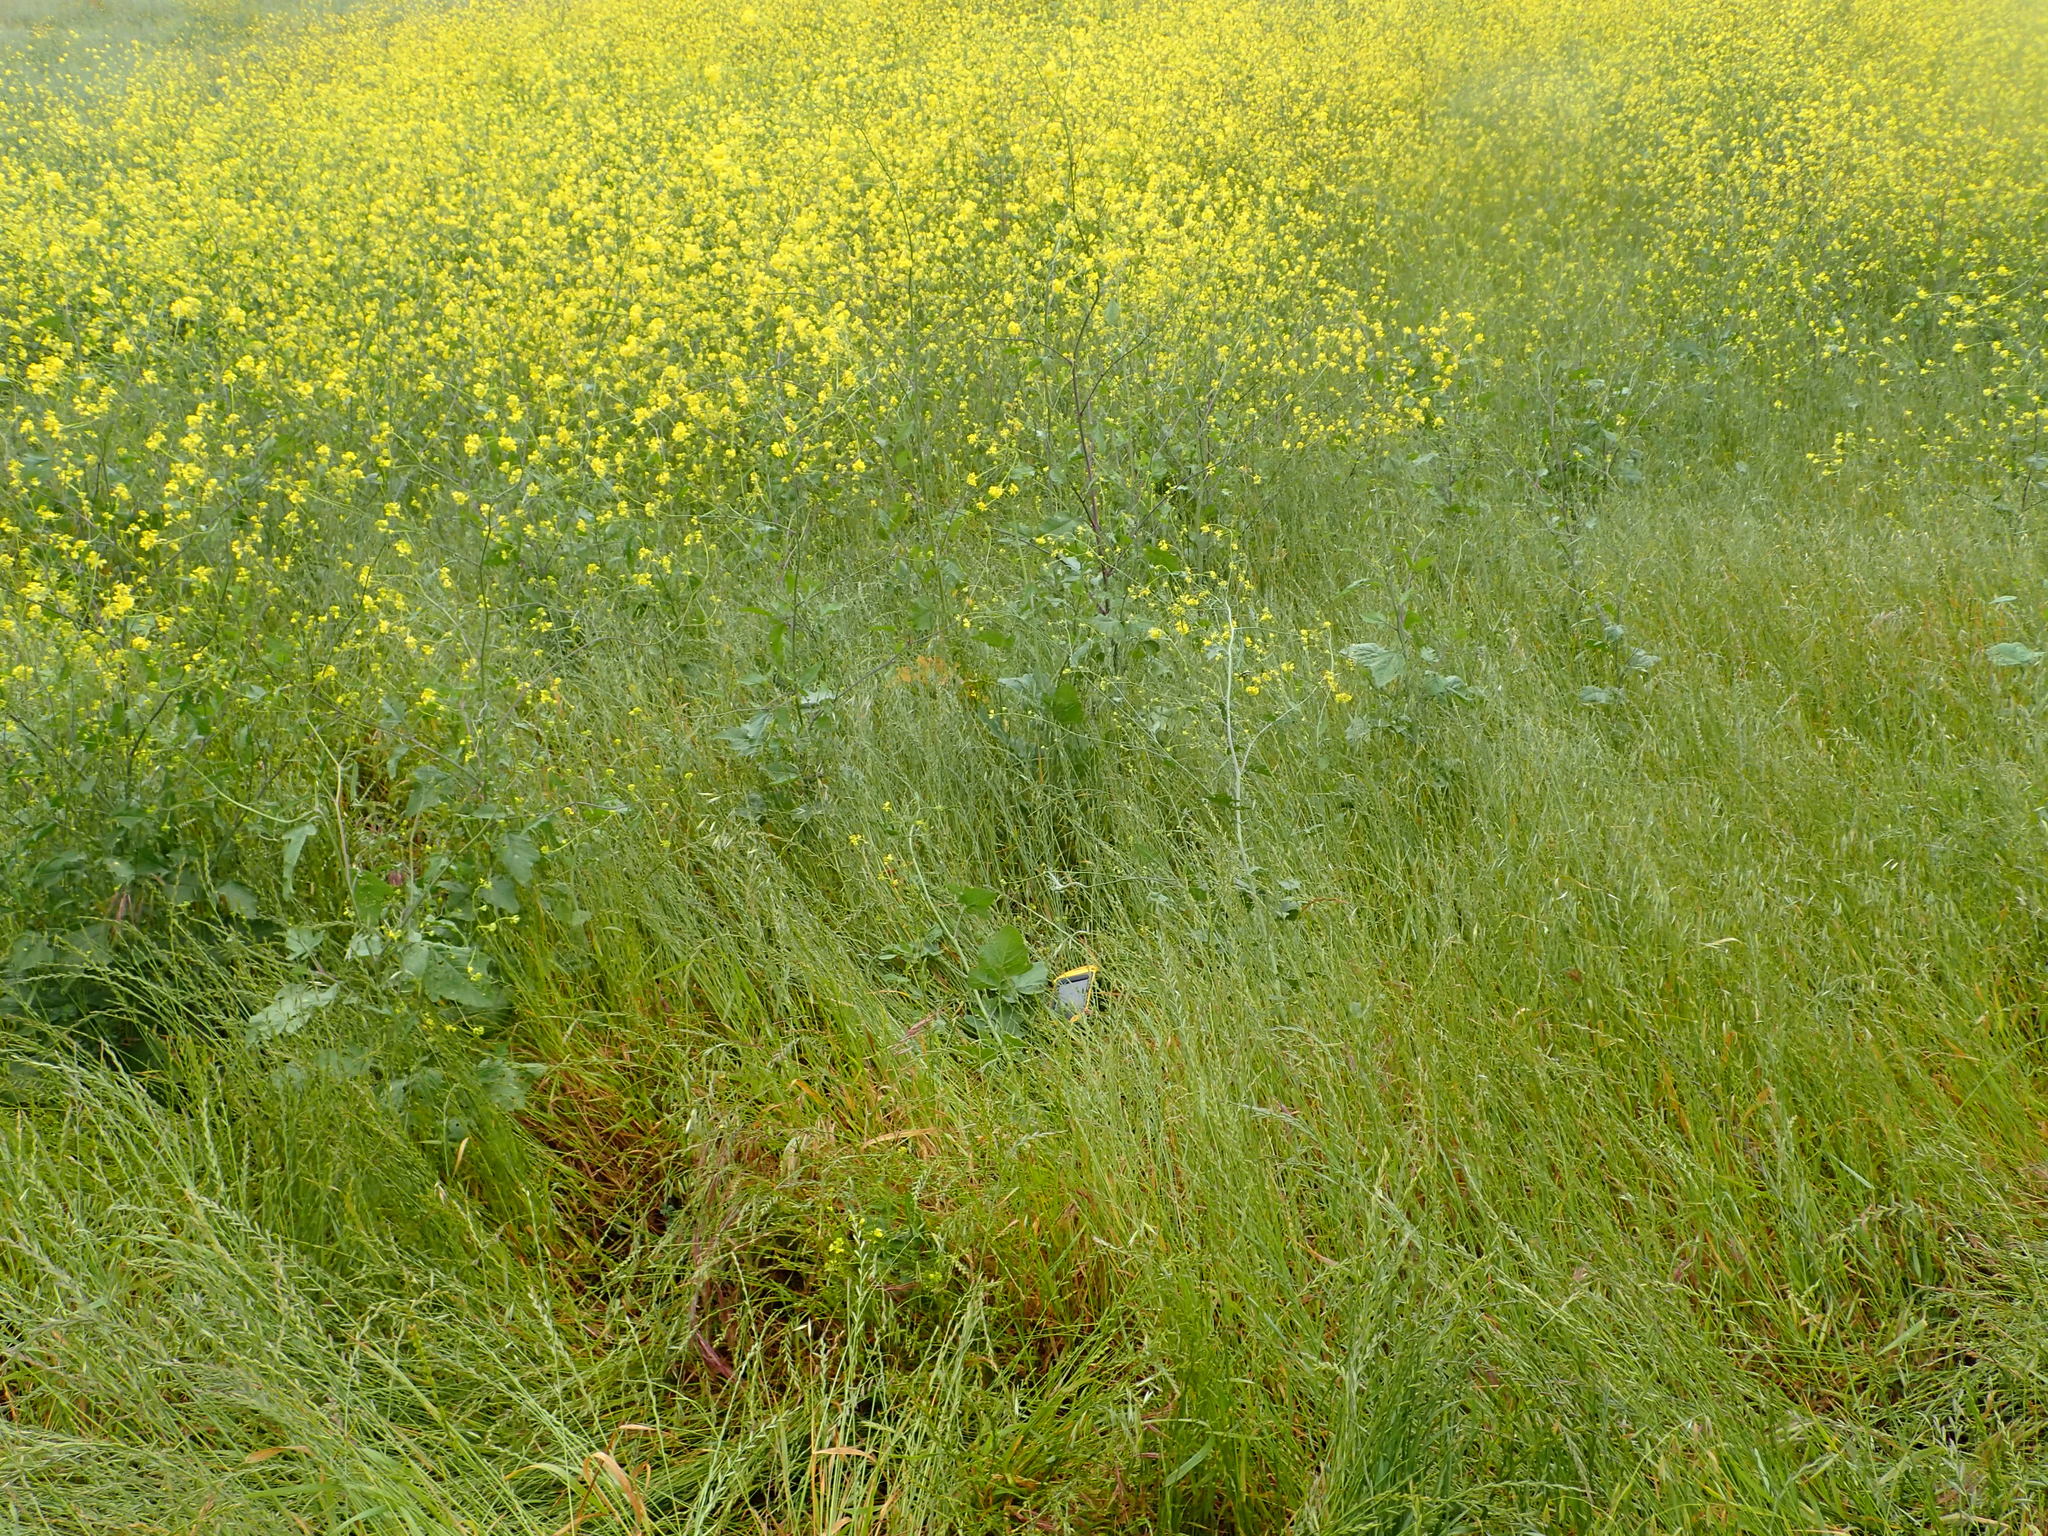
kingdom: Plantae
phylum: Tracheophyta
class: Magnoliopsida
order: Brassicales
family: Brassicaceae
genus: Brassica
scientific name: Brassica nigra
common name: Black mustard
